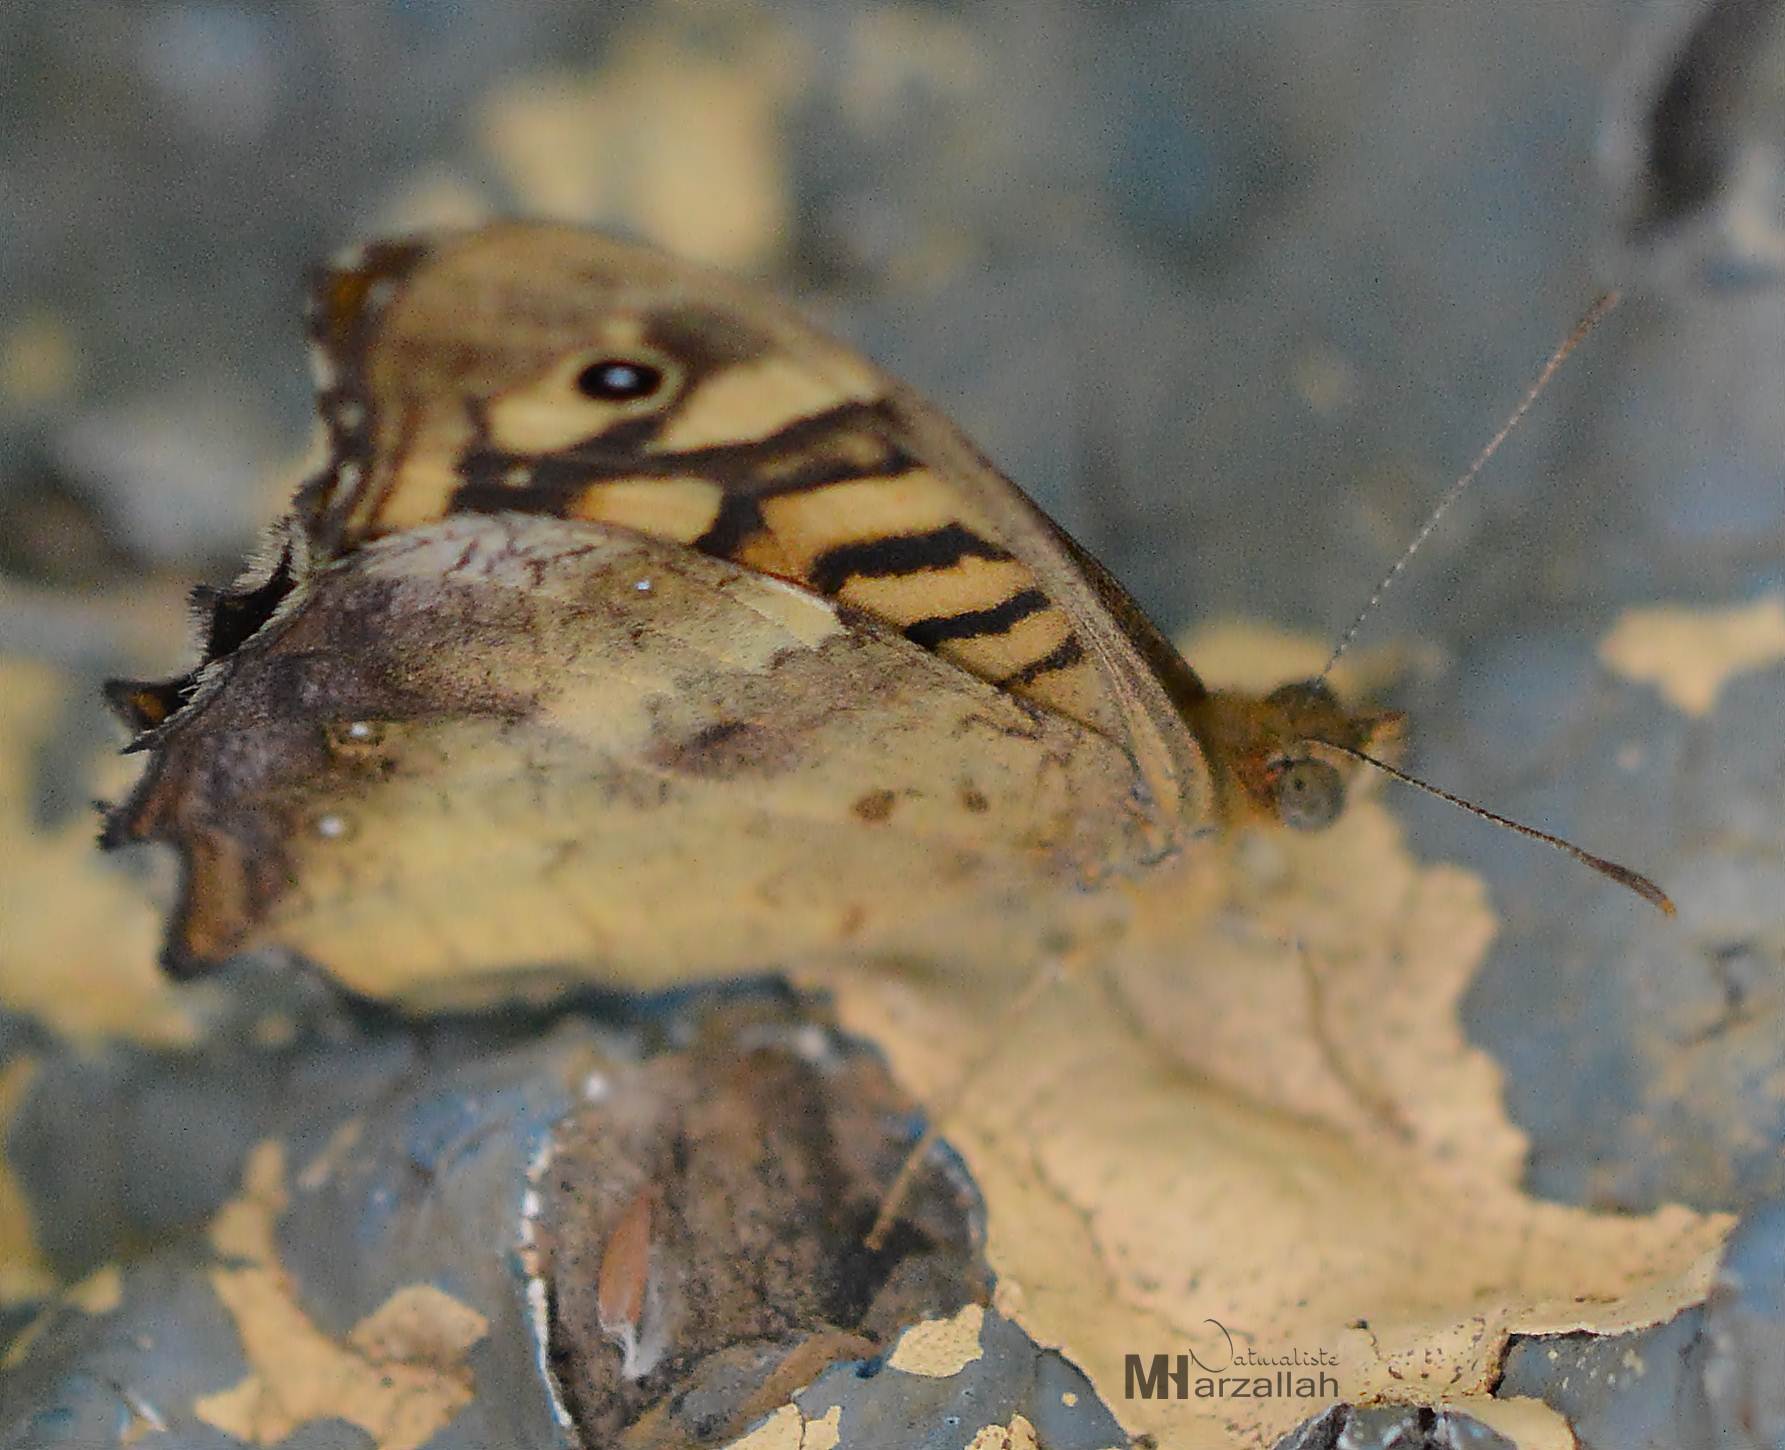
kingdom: Animalia
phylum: Arthropoda
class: Insecta
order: Lepidoptera
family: Nymphalidae
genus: Pararge
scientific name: Pararge aegeria
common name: Speckled wood
